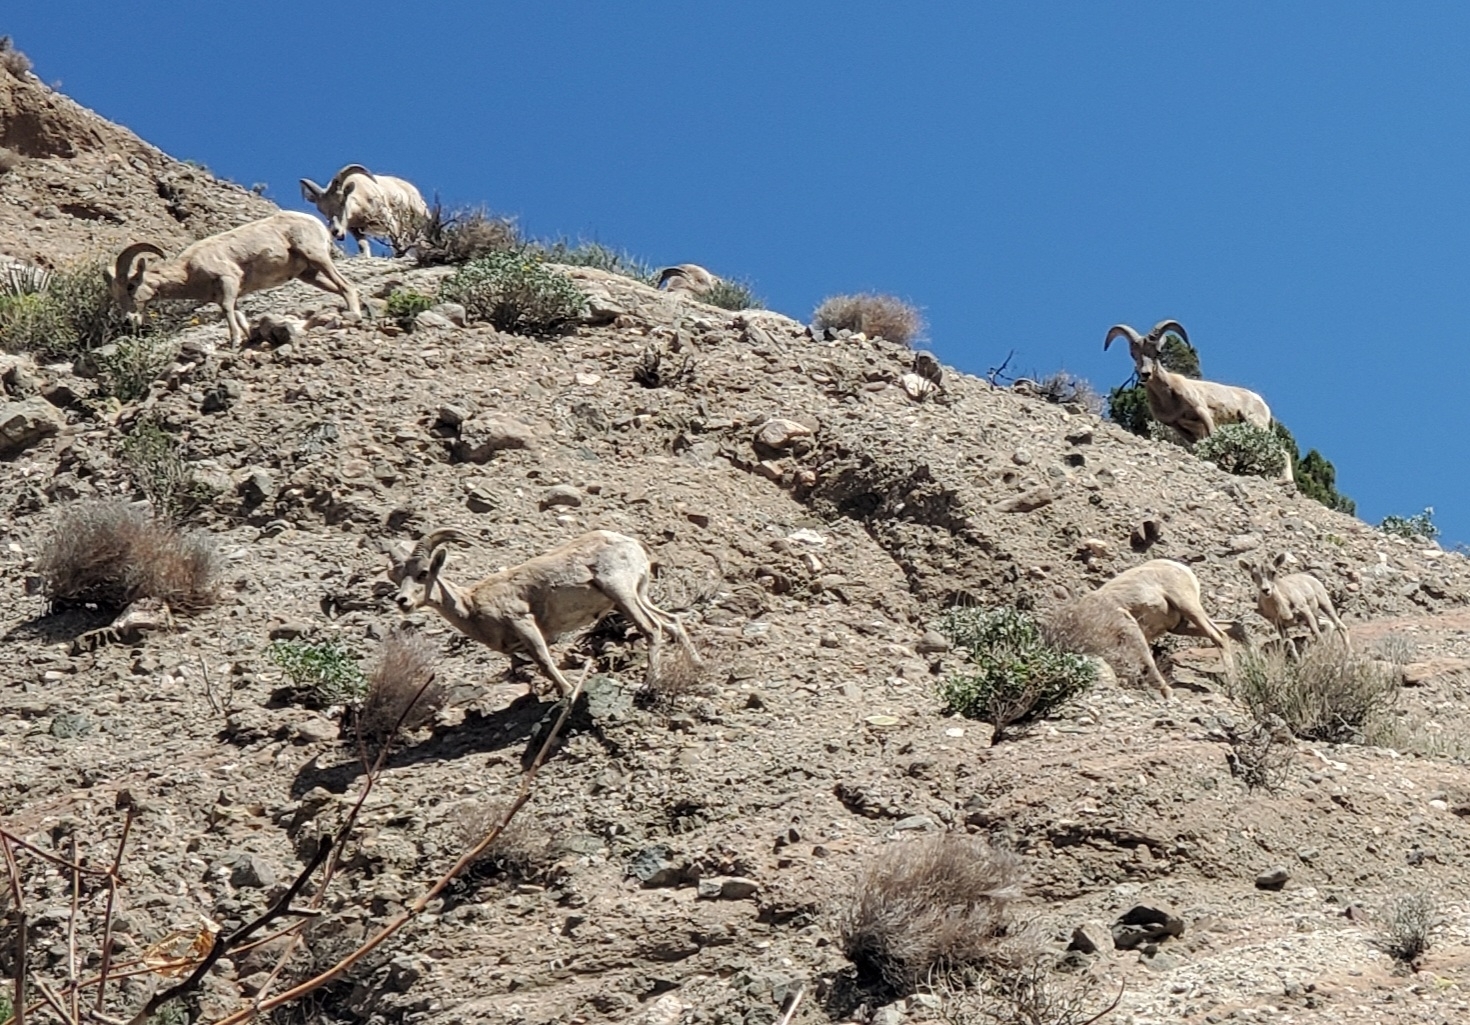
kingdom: Animalia
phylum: Chordata
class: Mammalia
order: Artiodactyla
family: Bovidae
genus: Ovis
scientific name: Ovis canadensis
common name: Bighorn sheep
